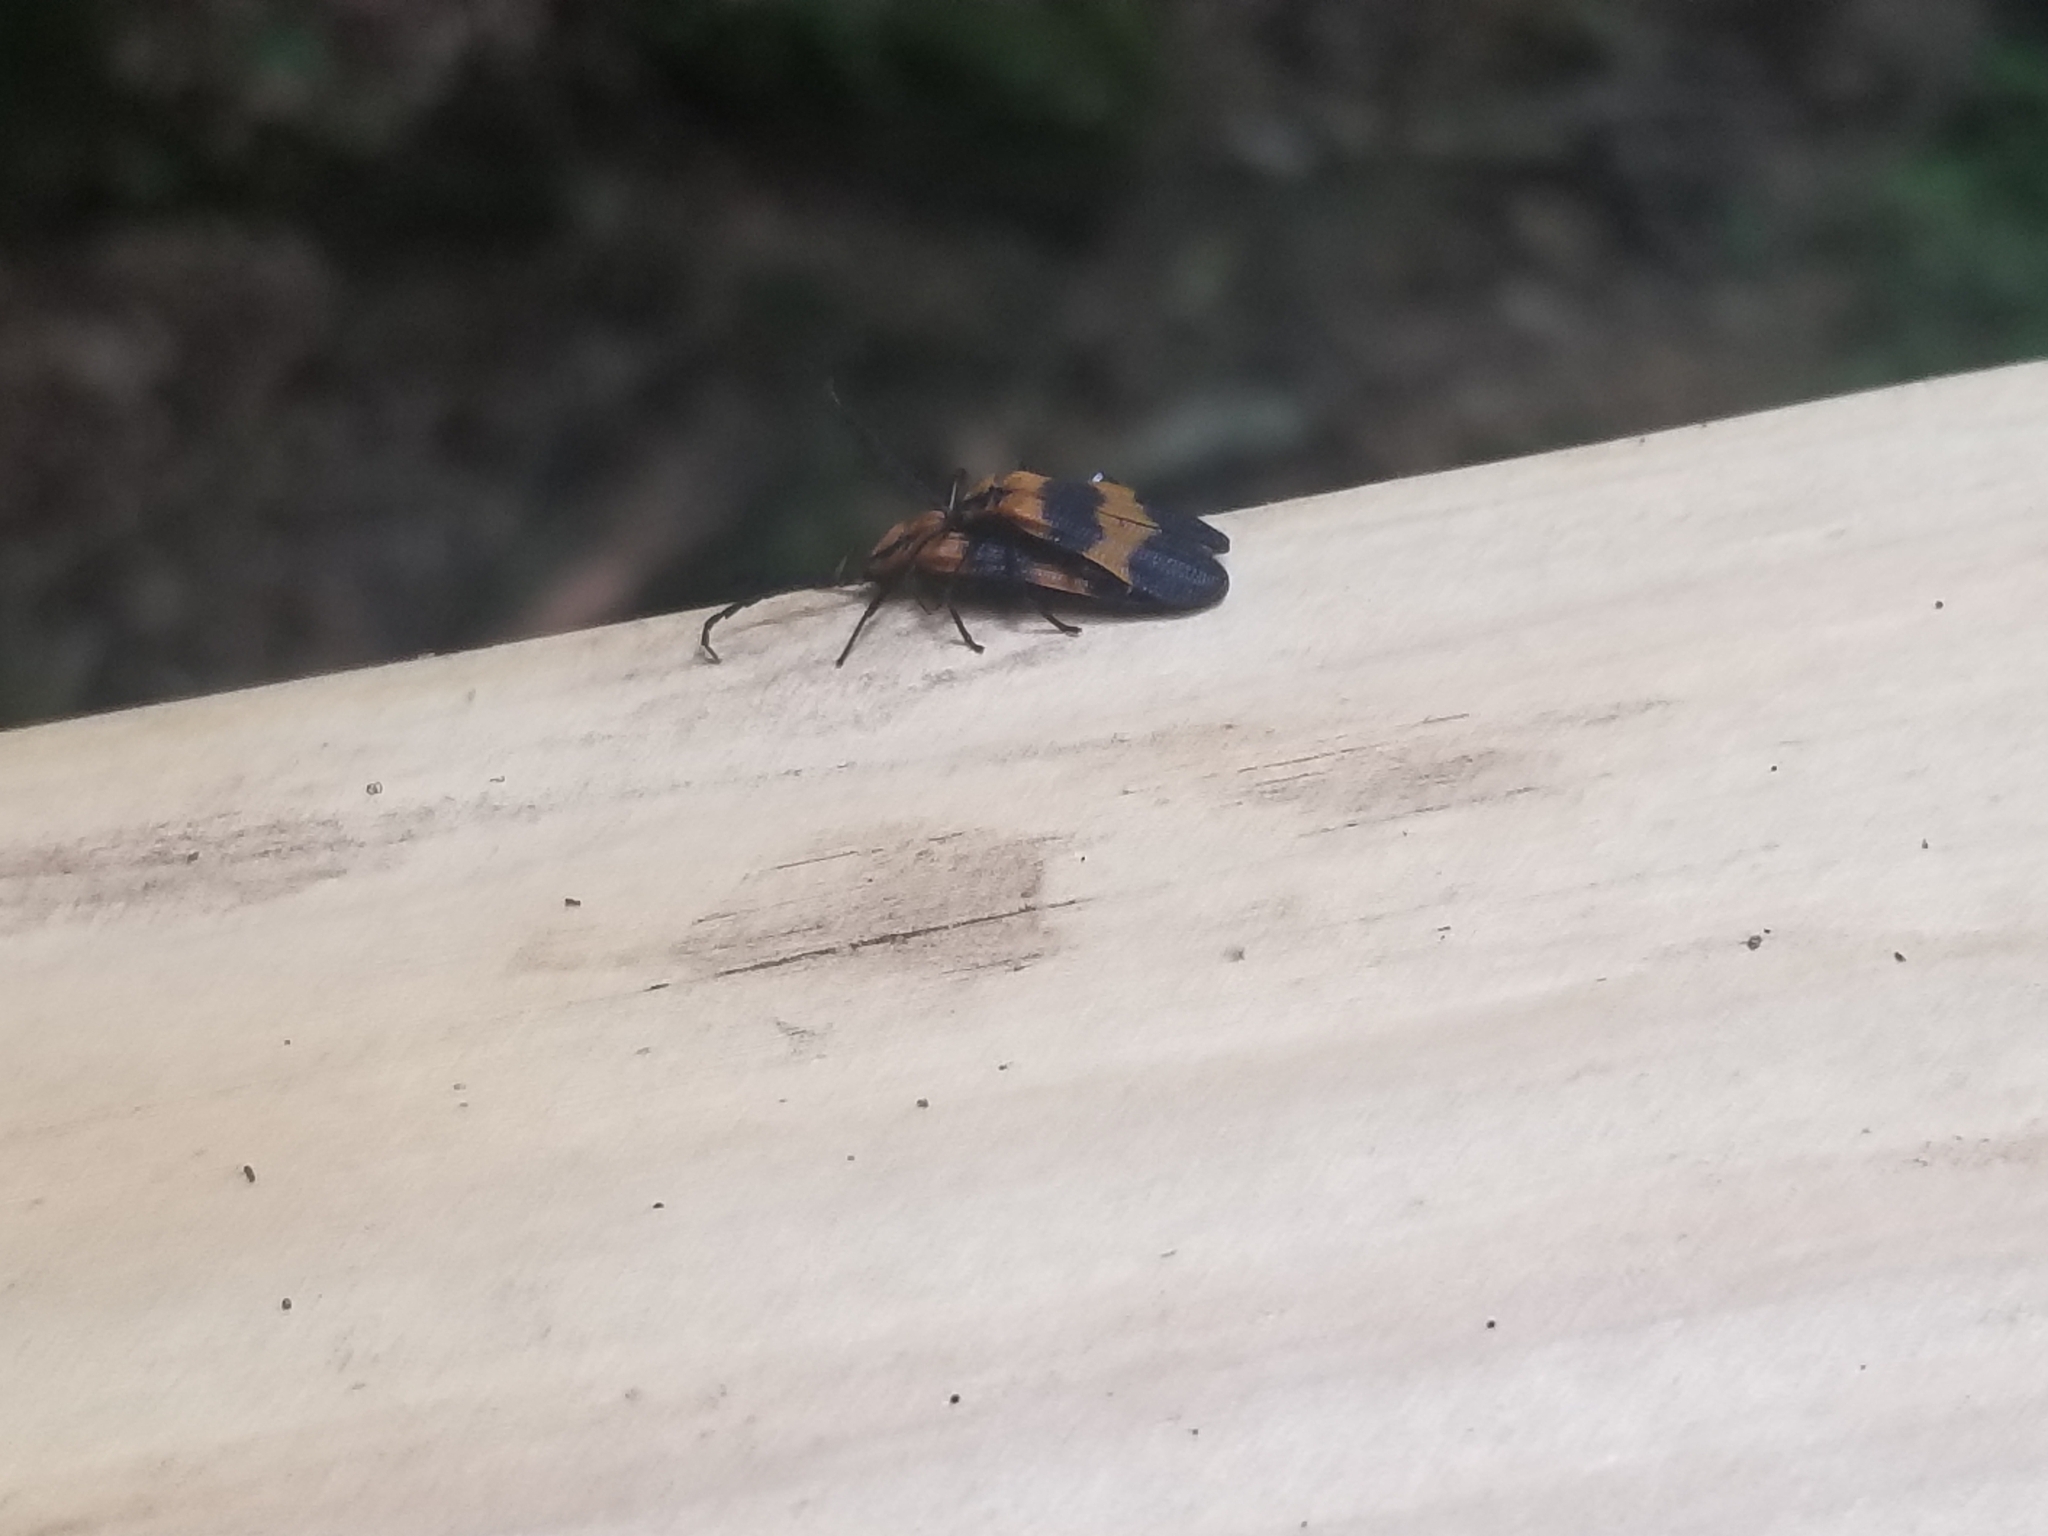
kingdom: Animalia
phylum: Arthropoda
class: Insecta
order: Coleoptera
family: Lycidae
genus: Calopteron
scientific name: Calopteron reticulatum
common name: Banded net-winged beetle
